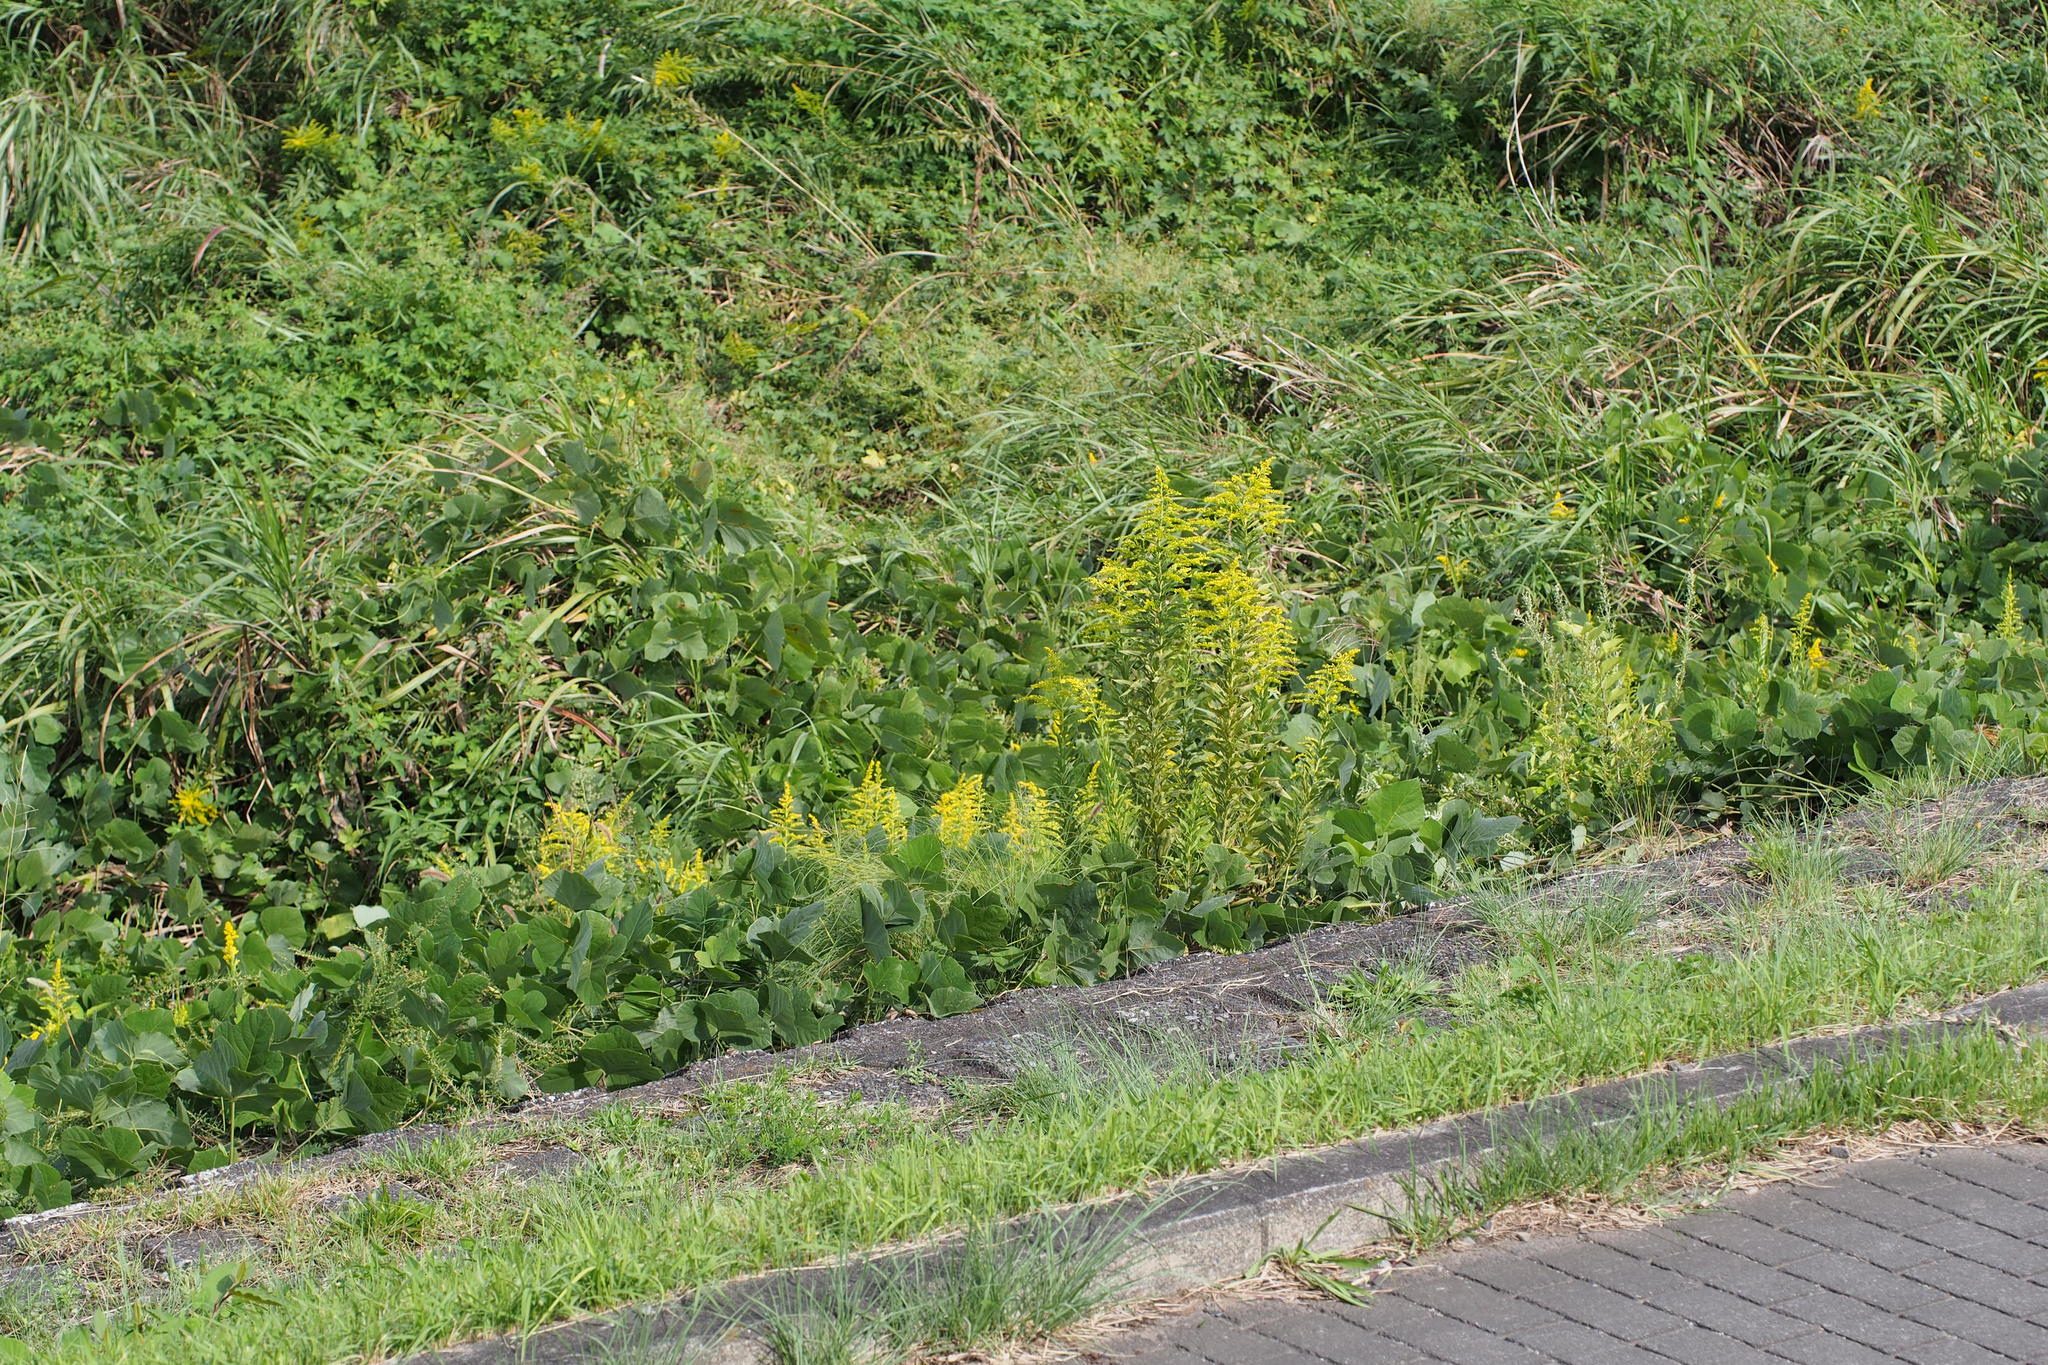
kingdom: Plantae
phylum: Tracheophyta
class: Magnoliopsida
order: Asterales
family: Asteraceae
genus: Solidago
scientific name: Solidago altissima
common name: Late goldenrod
